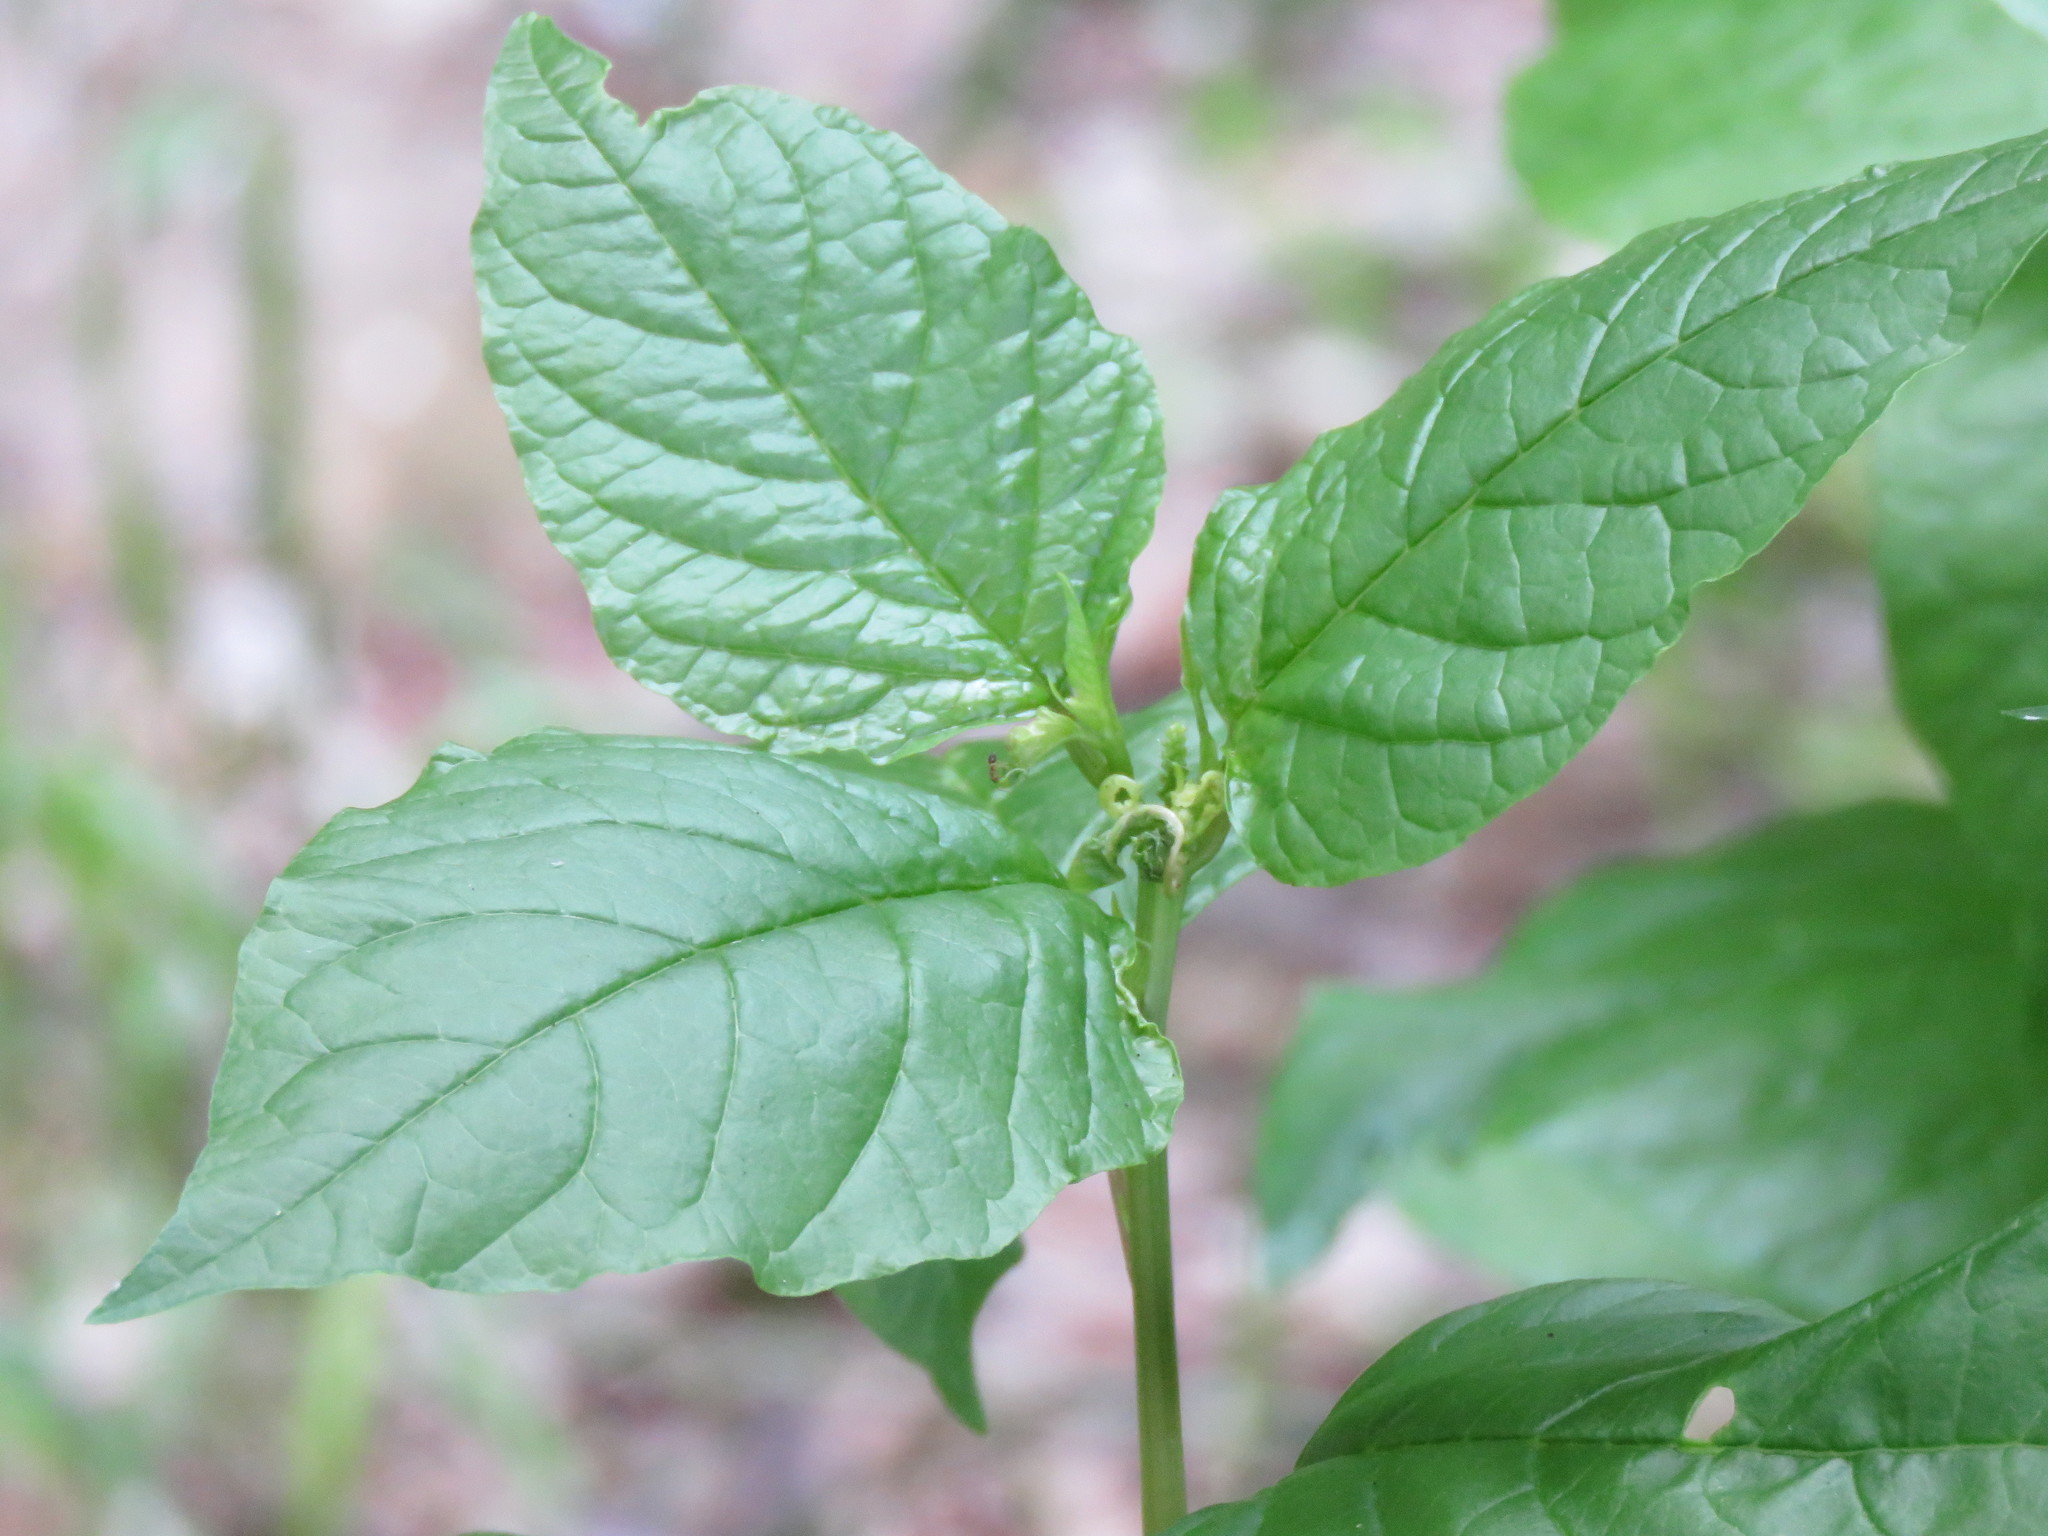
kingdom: Plantae
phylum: Tracheophyta
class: Magnoliopsida
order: Caryophyllales
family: Phytolaccaceae
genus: Rivina
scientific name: Rivina humilis
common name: Rougeplant
